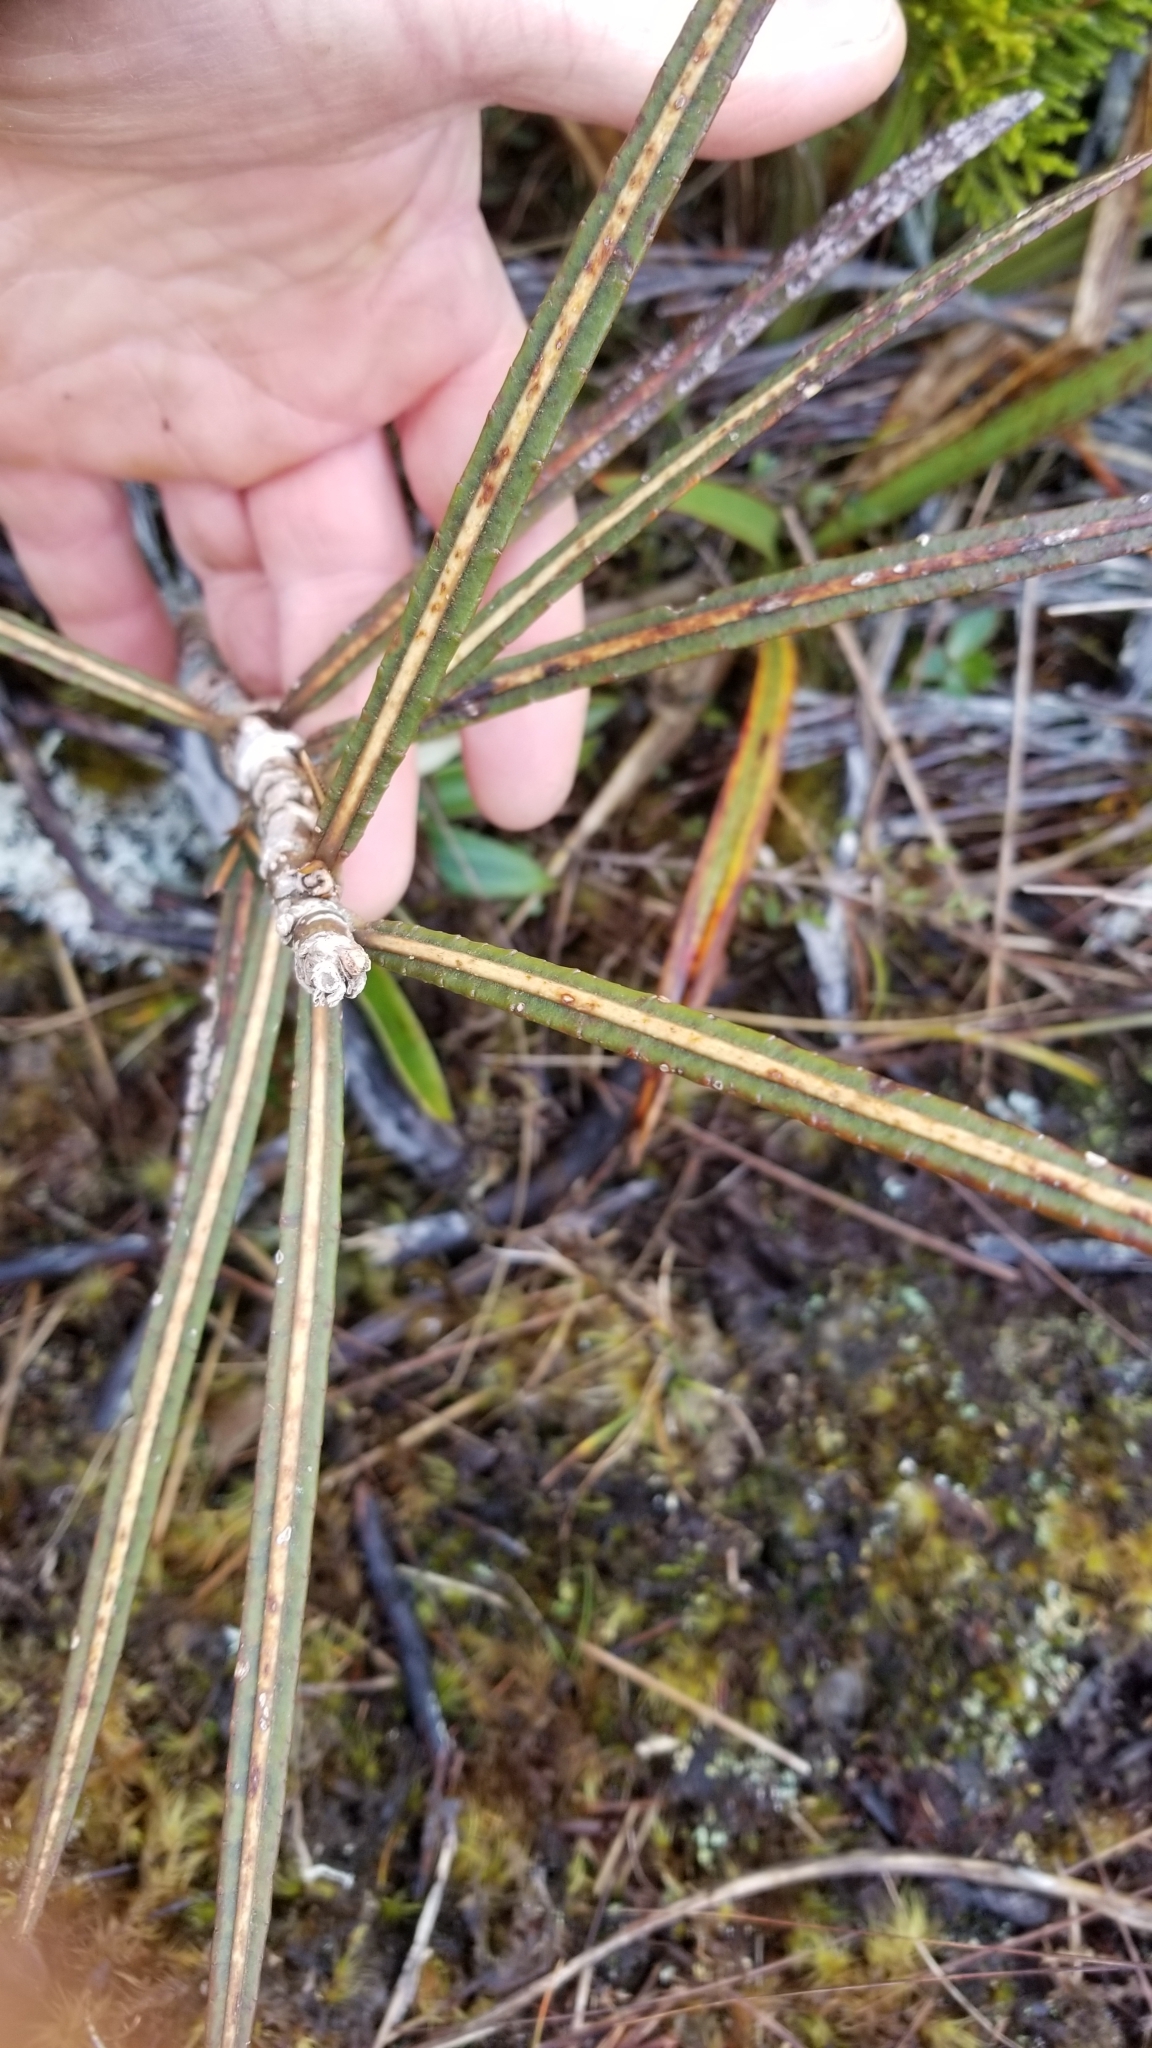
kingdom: Plantae
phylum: Tracheophyta
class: Magnoliopsida
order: Apiales
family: Araliaceae
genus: Pseudopanax
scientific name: Pseudopanax linearis
